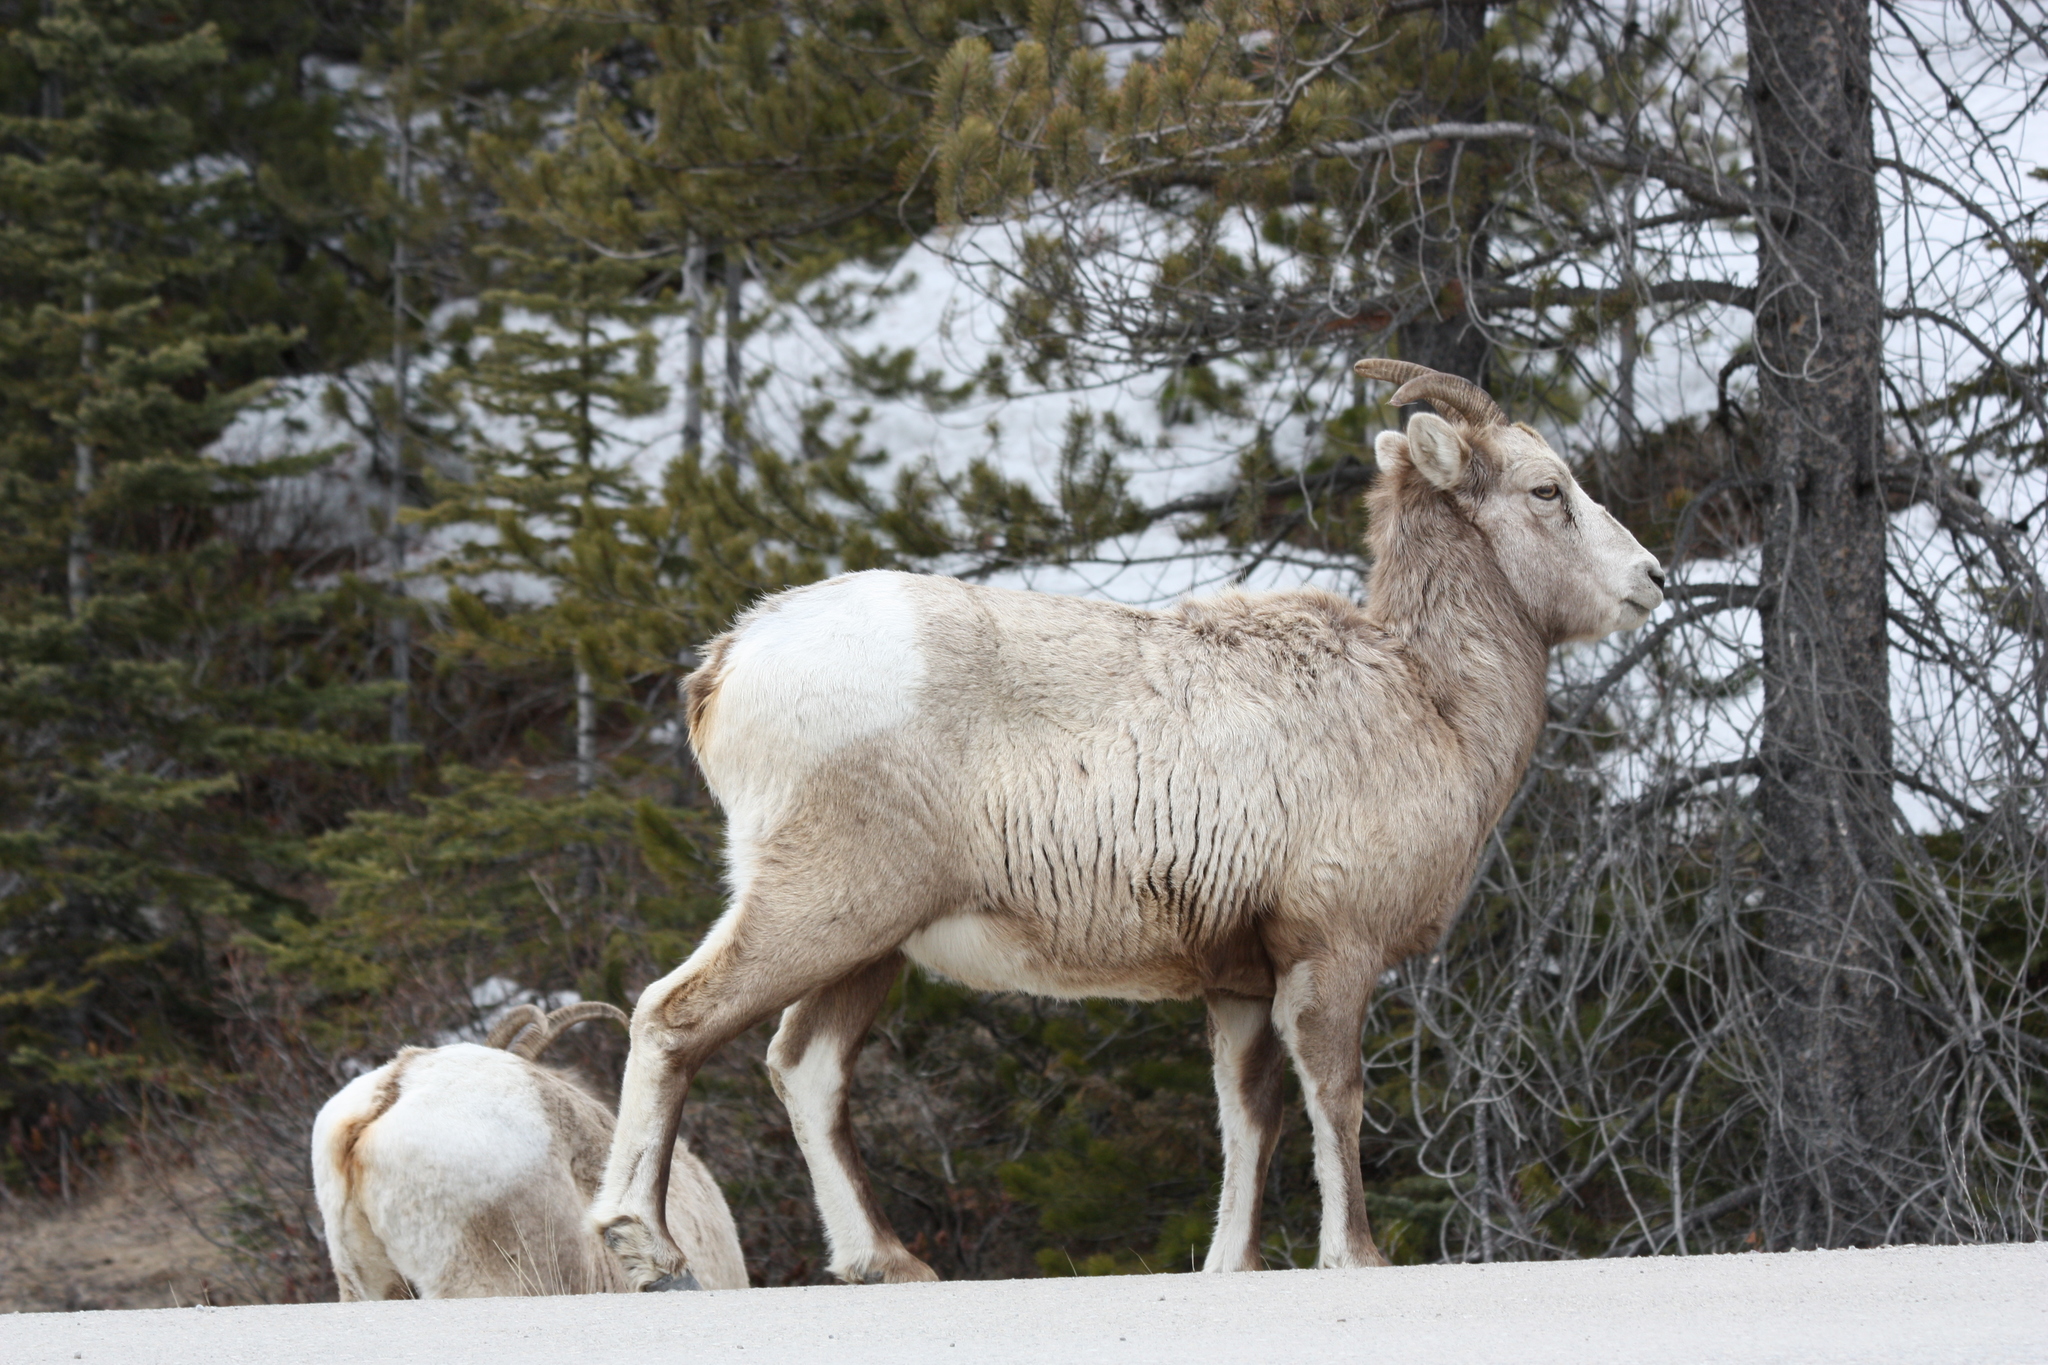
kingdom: Animalia
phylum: Chordata
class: Mammalia
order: Artiodactyla
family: Bovidae
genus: Ovis
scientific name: Ovis canadensis
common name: Bighorn sheep
